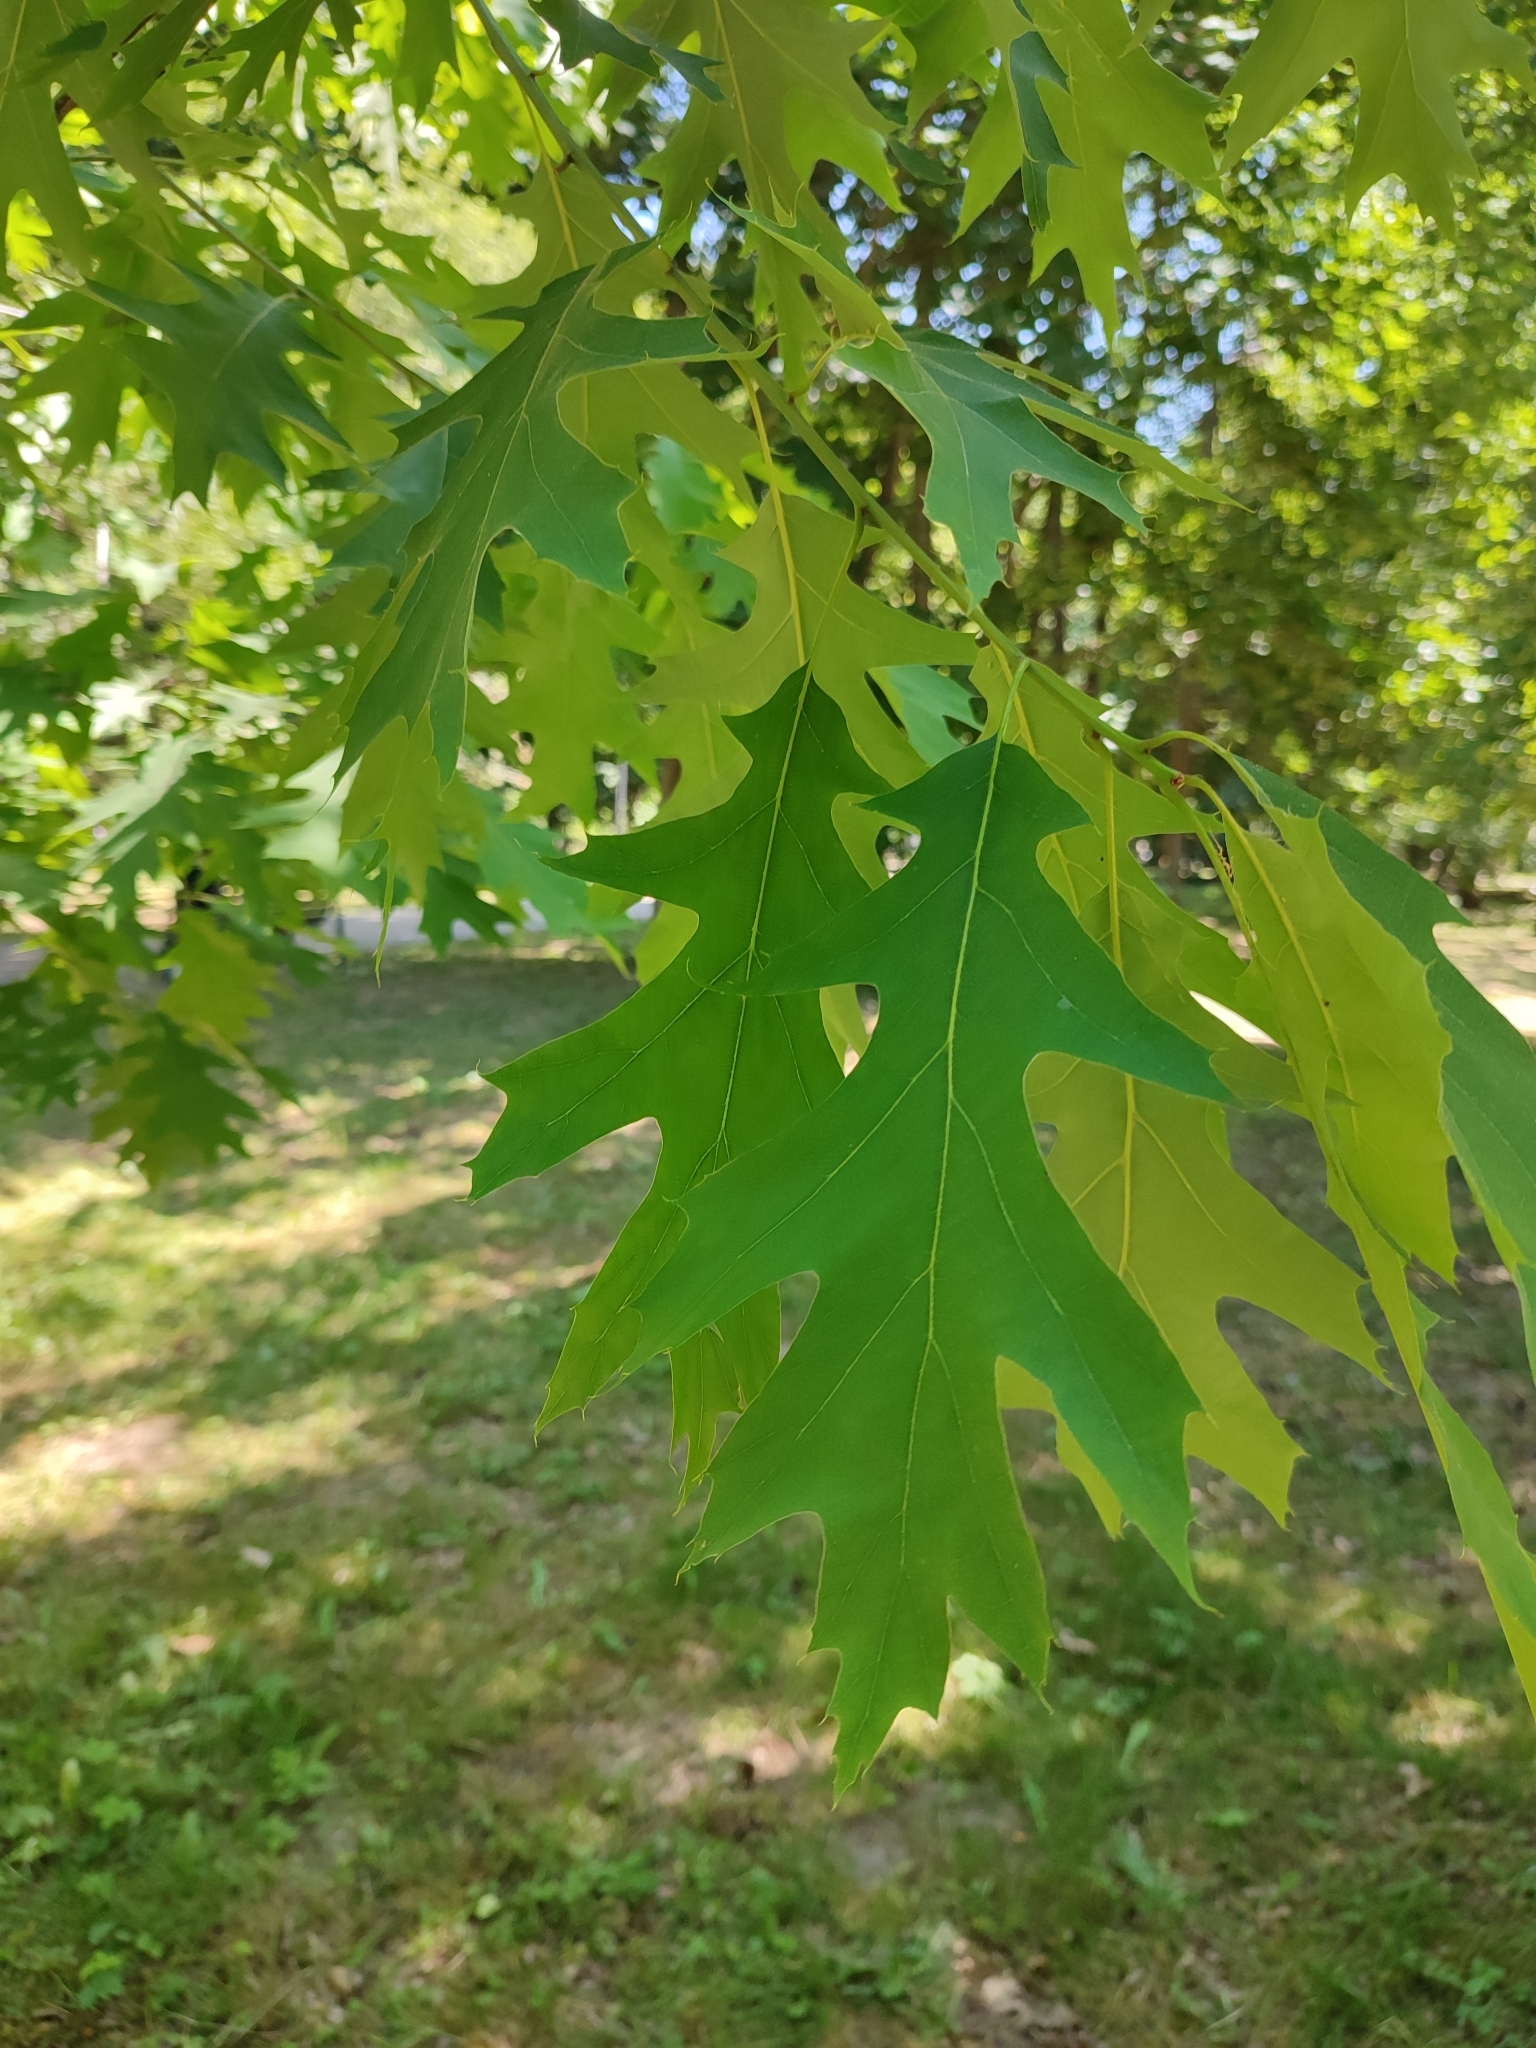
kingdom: Plantae
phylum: Tracheophyta
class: Magnoliopsida
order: Fagales
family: Fagaceae
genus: Quercus
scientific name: Quercus rubra
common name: Red oak
